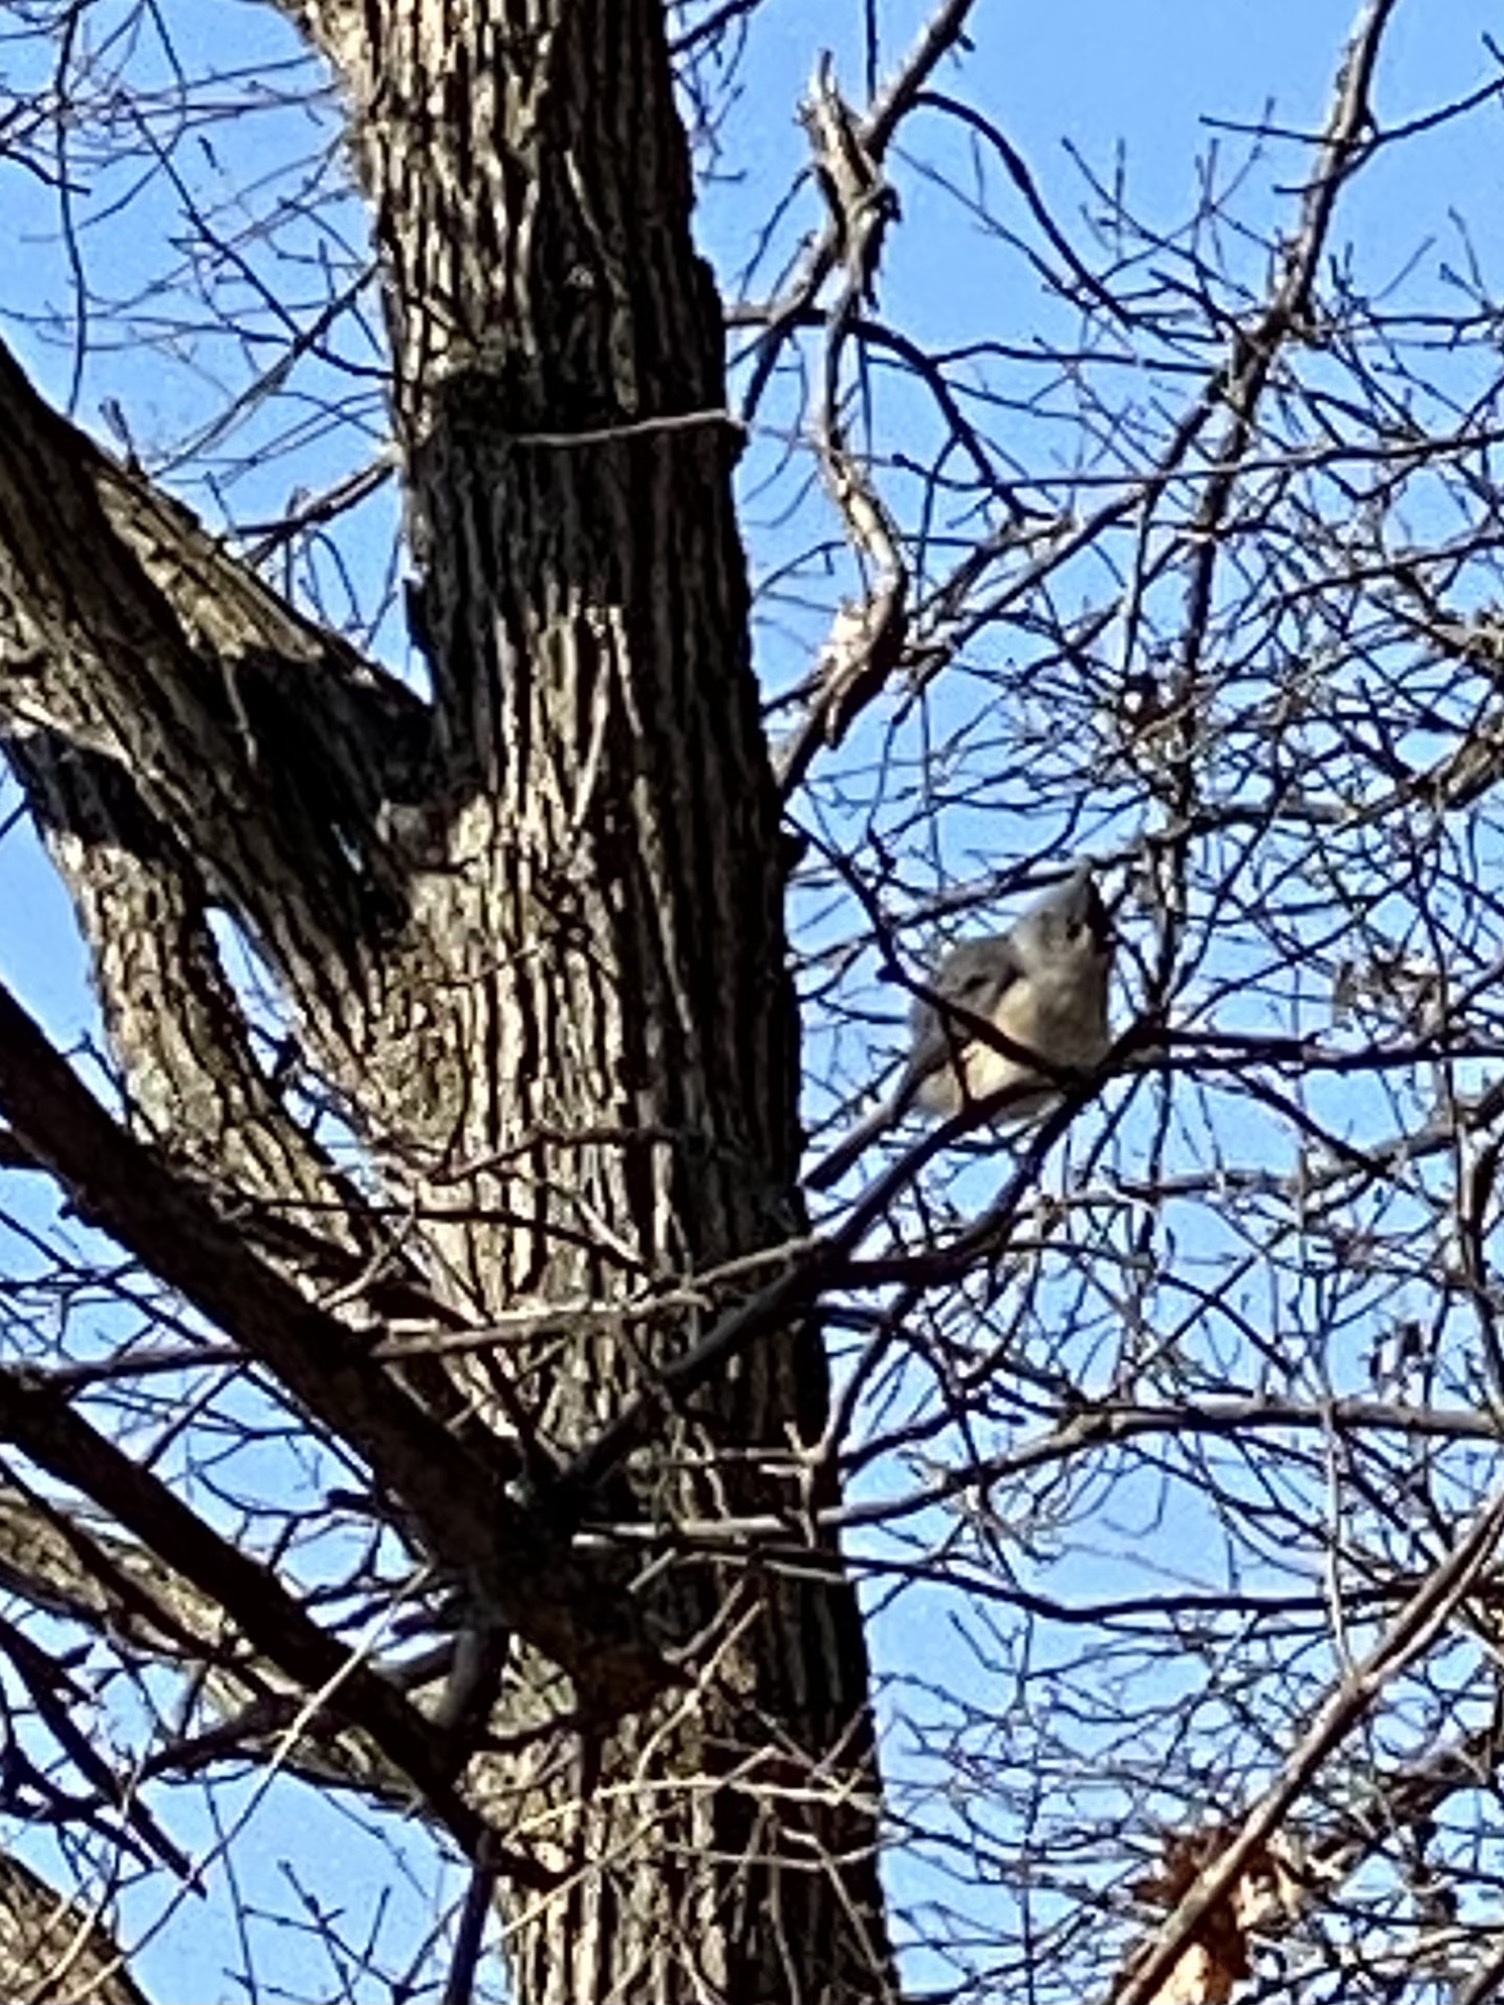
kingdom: Animalia
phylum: Chordata
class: Aves
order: Passeriformes
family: Paridae
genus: Baeolophus
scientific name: Baeolophus bicolor
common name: Tufted titmouse
